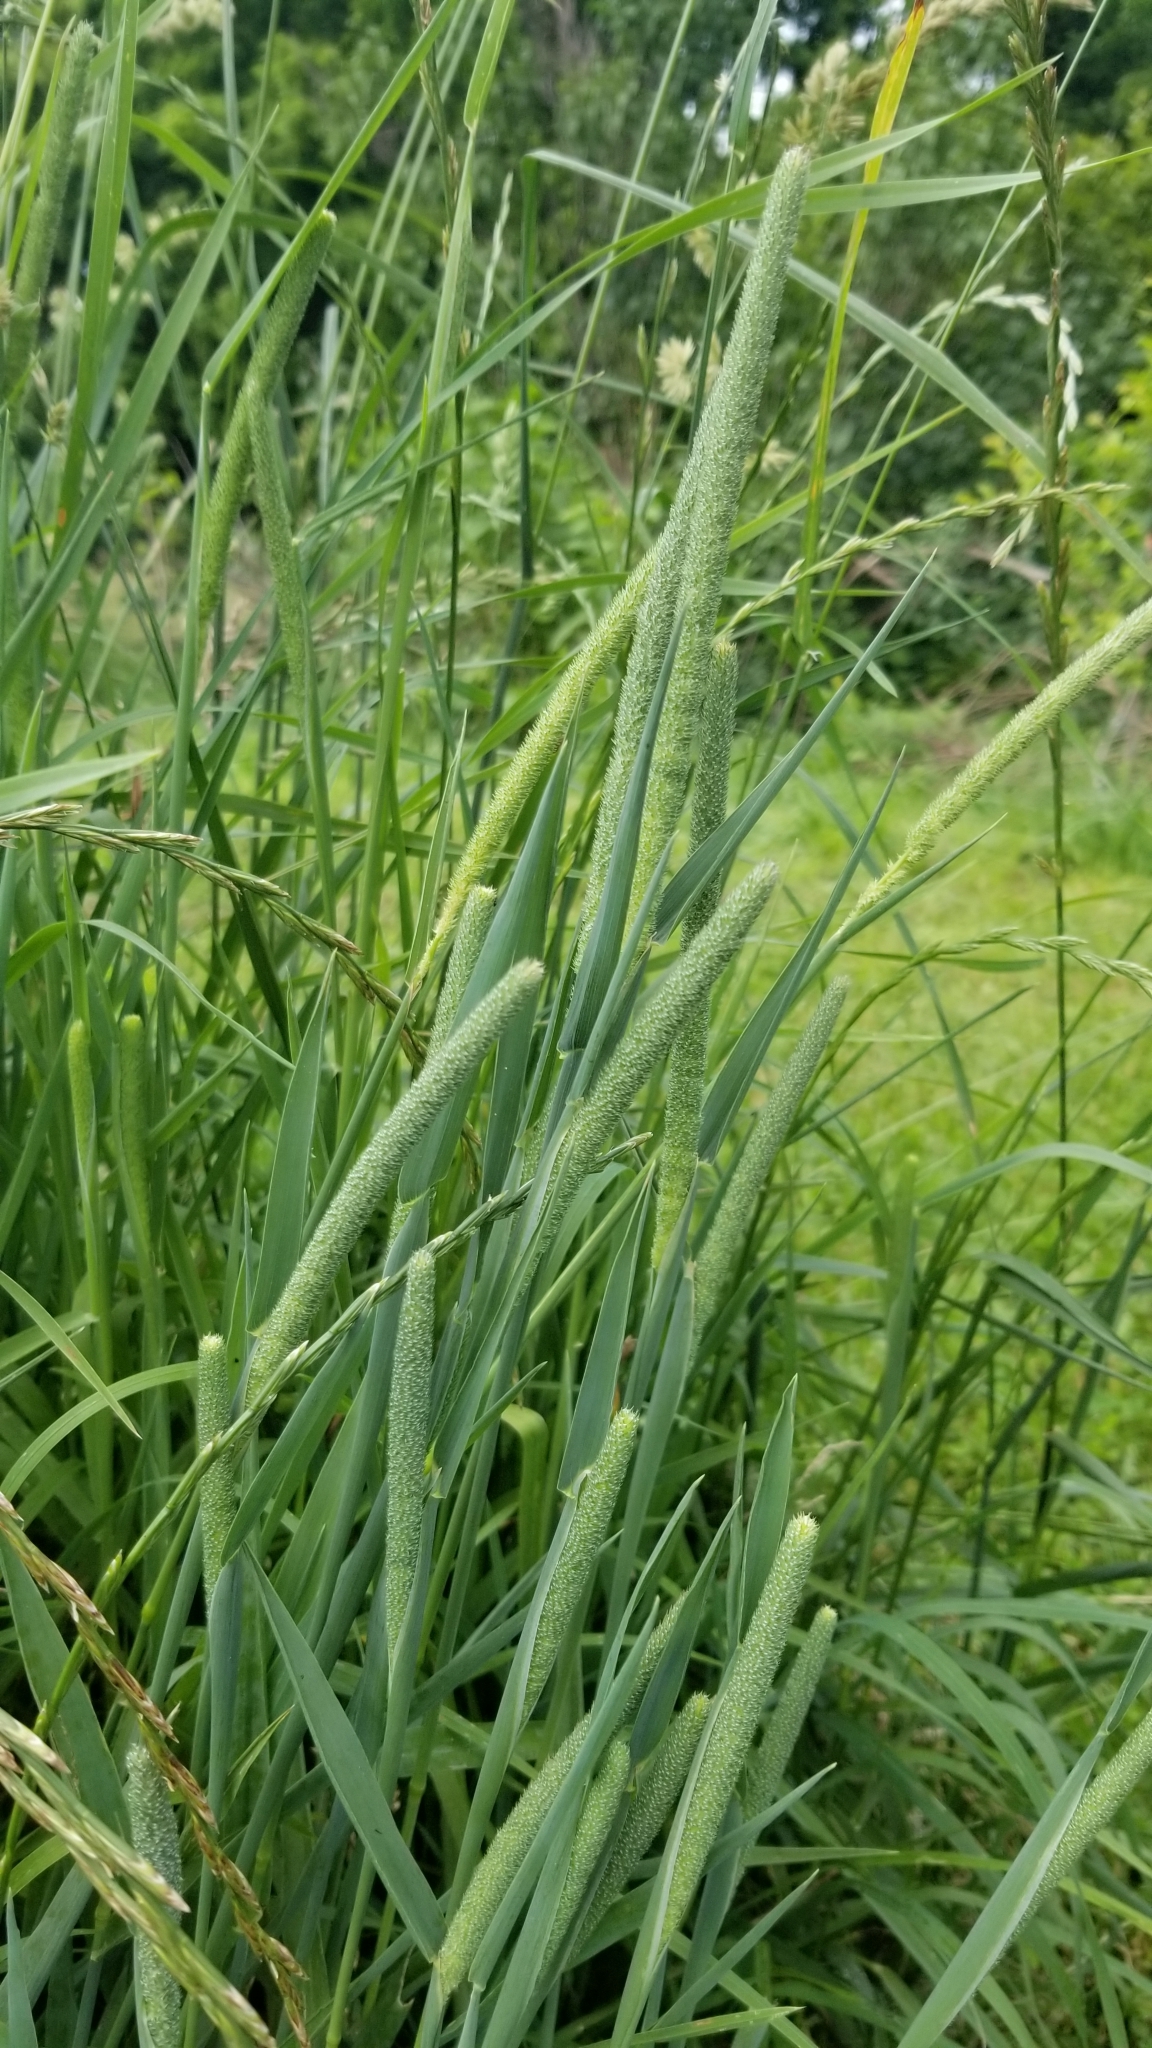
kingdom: Plantae
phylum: Tracheophyta
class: Liliopsida
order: Poales
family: Poaceae
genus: Phleum
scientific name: Phleum pratense
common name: Timothy grass
